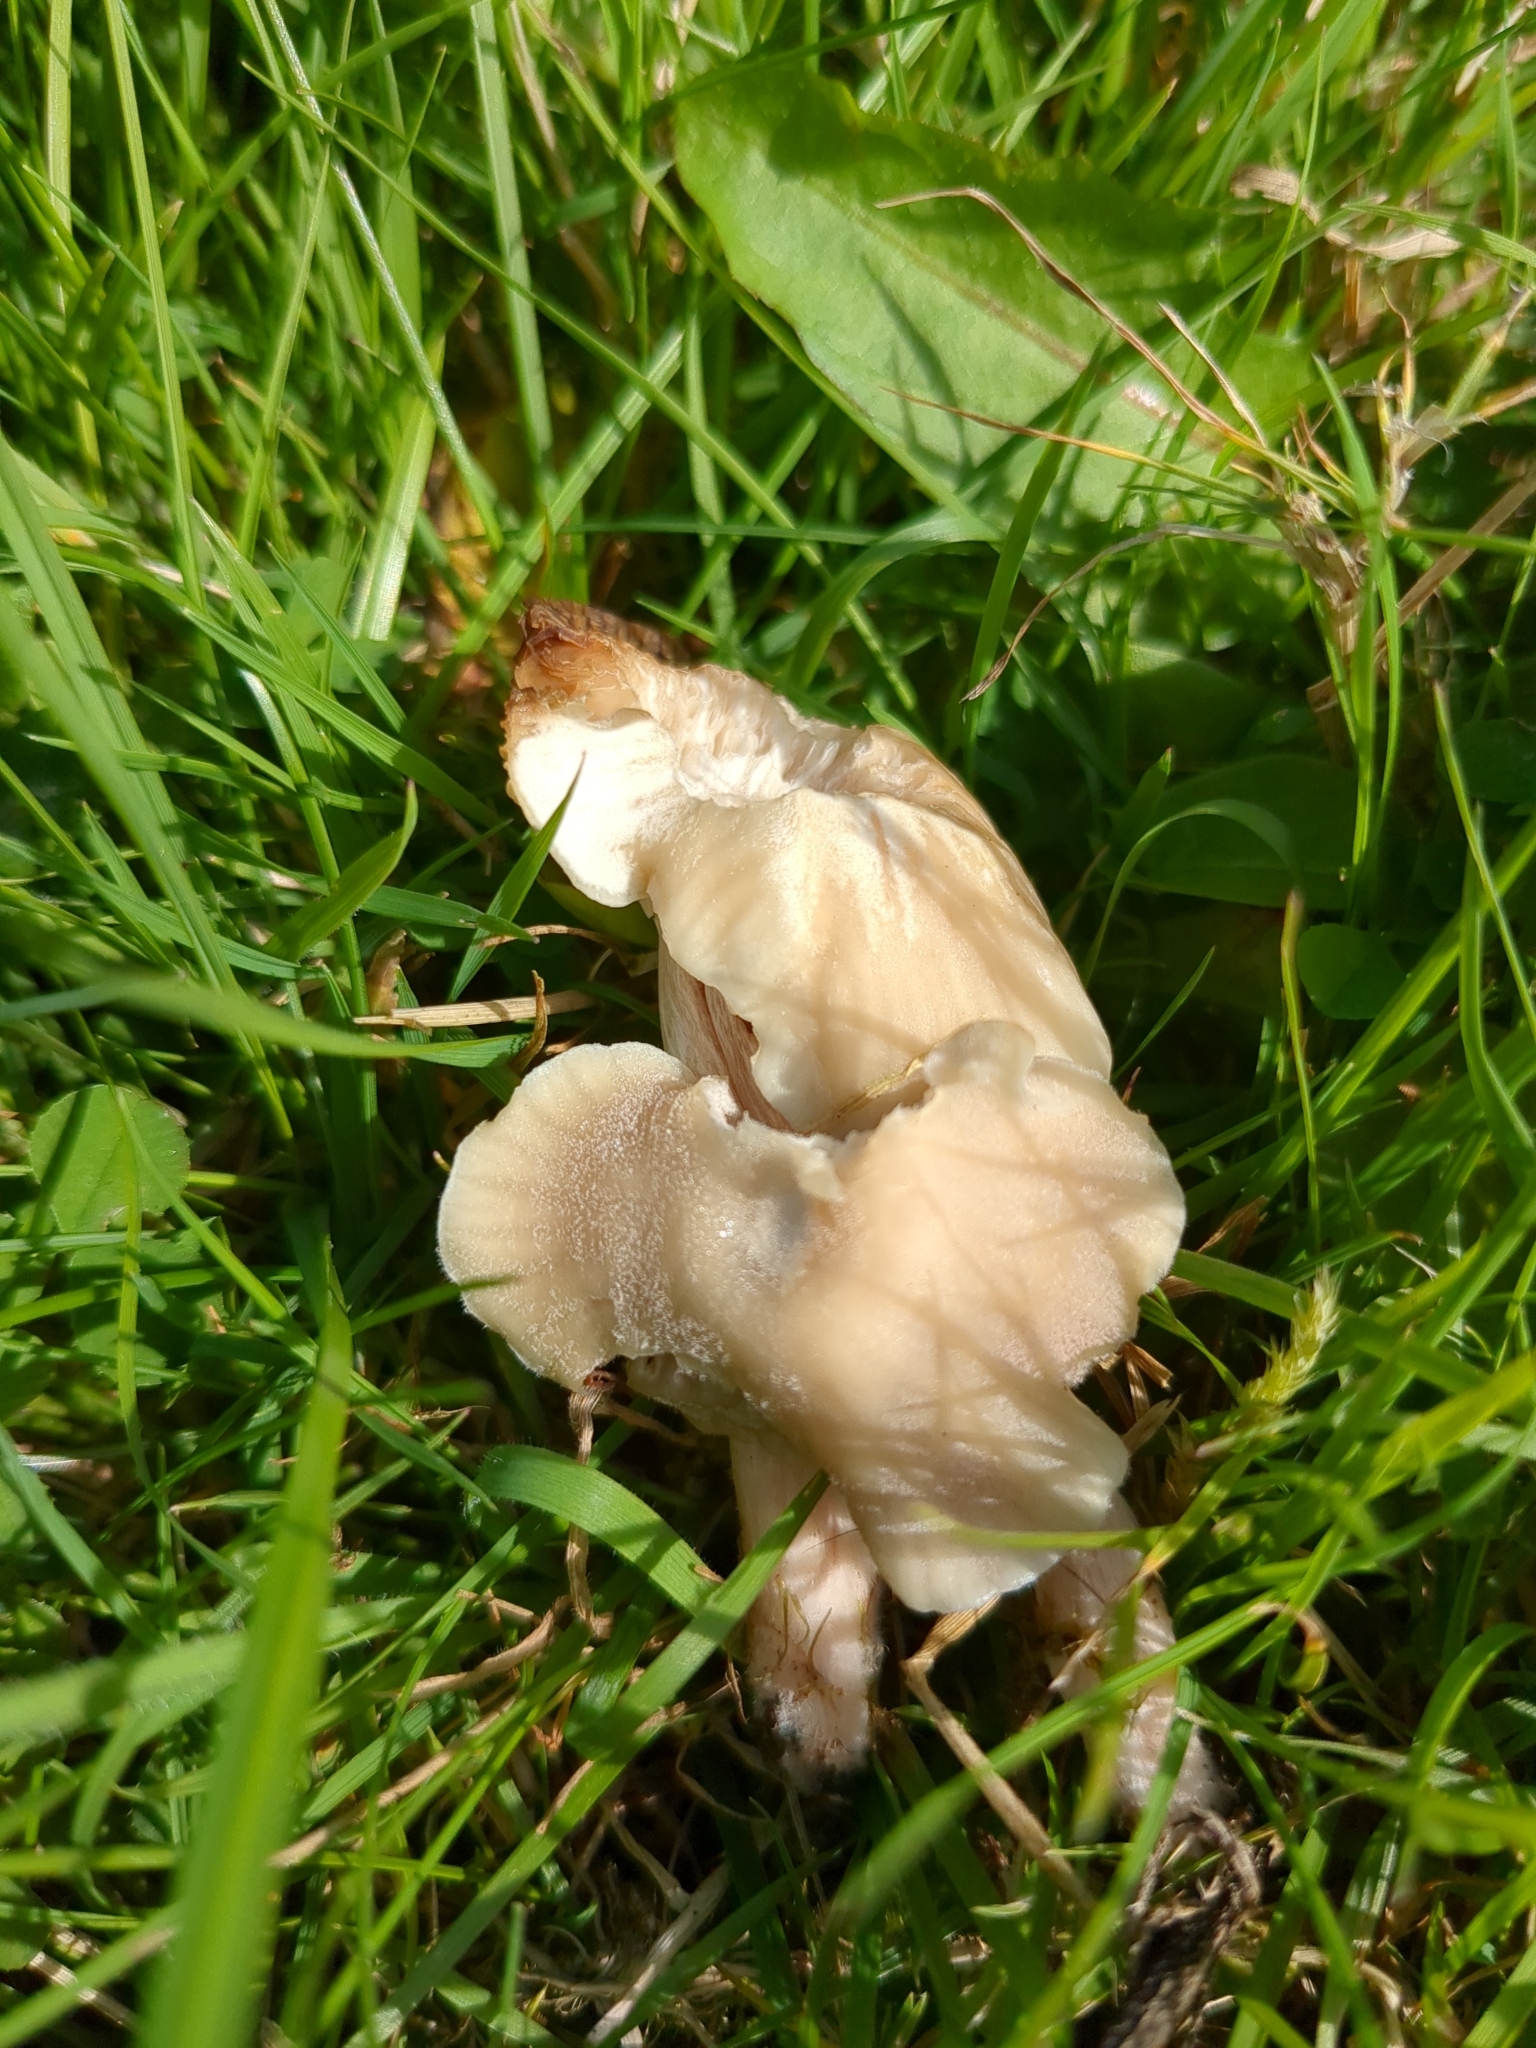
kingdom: Fungi
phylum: Basidiomycota
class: Agaricomycetes
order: Agaricales
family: Hygrophoraceae
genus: Cuphophyllus
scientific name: Cuphophyllus virgineus
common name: Snowy waxcap
